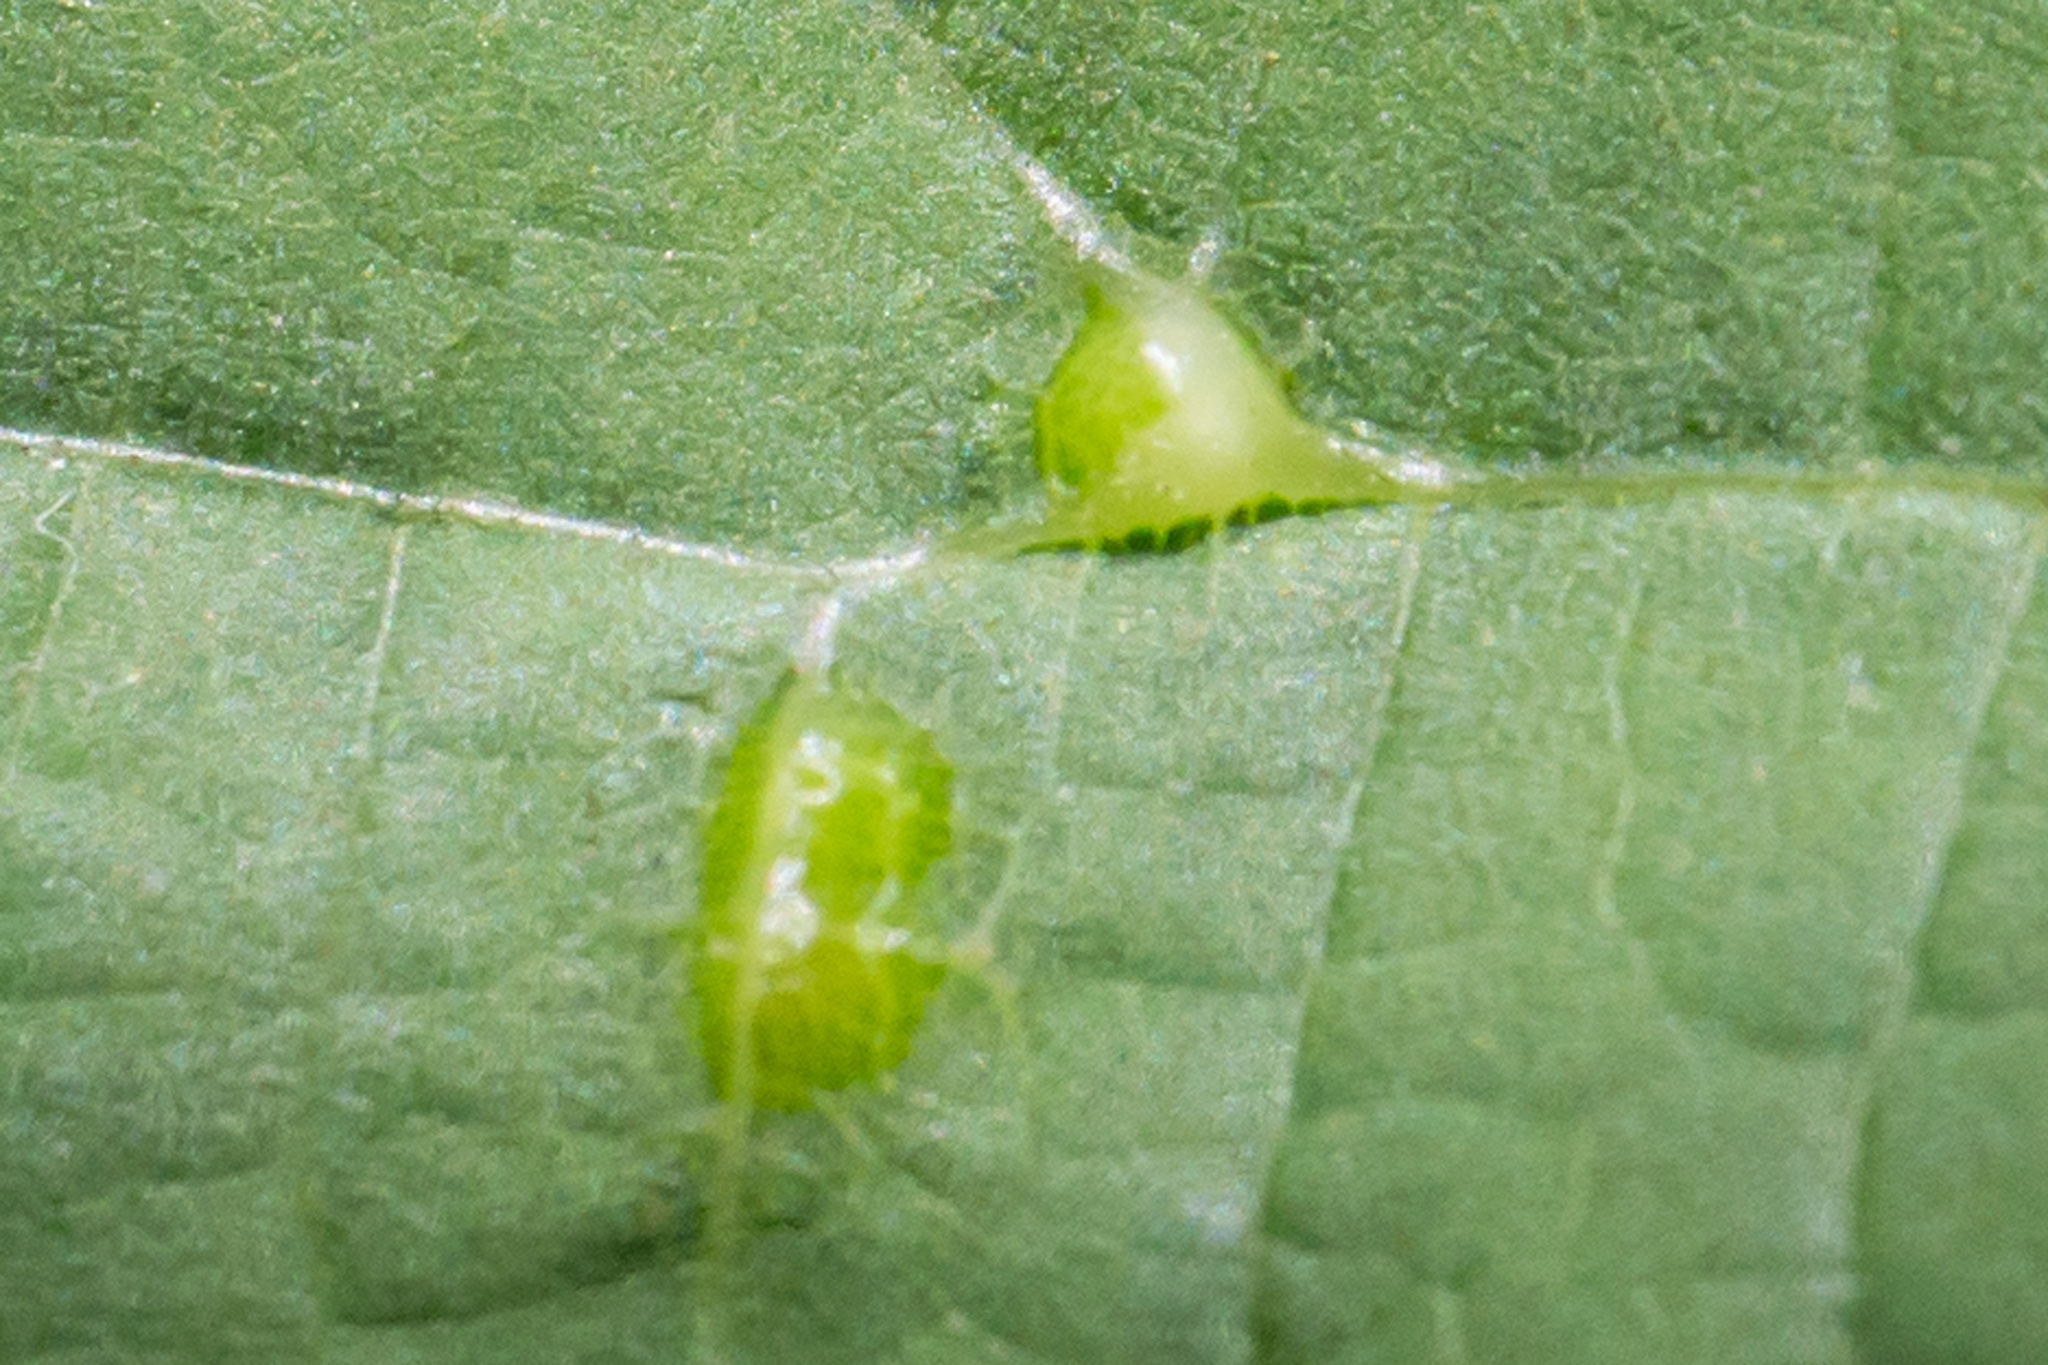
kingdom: Animalia
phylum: Arthropoda
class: Insecta
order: Diptera
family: Cecidomyiidae
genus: Contarinia
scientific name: Contarinia verrucicola
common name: Linden wart gall midge
